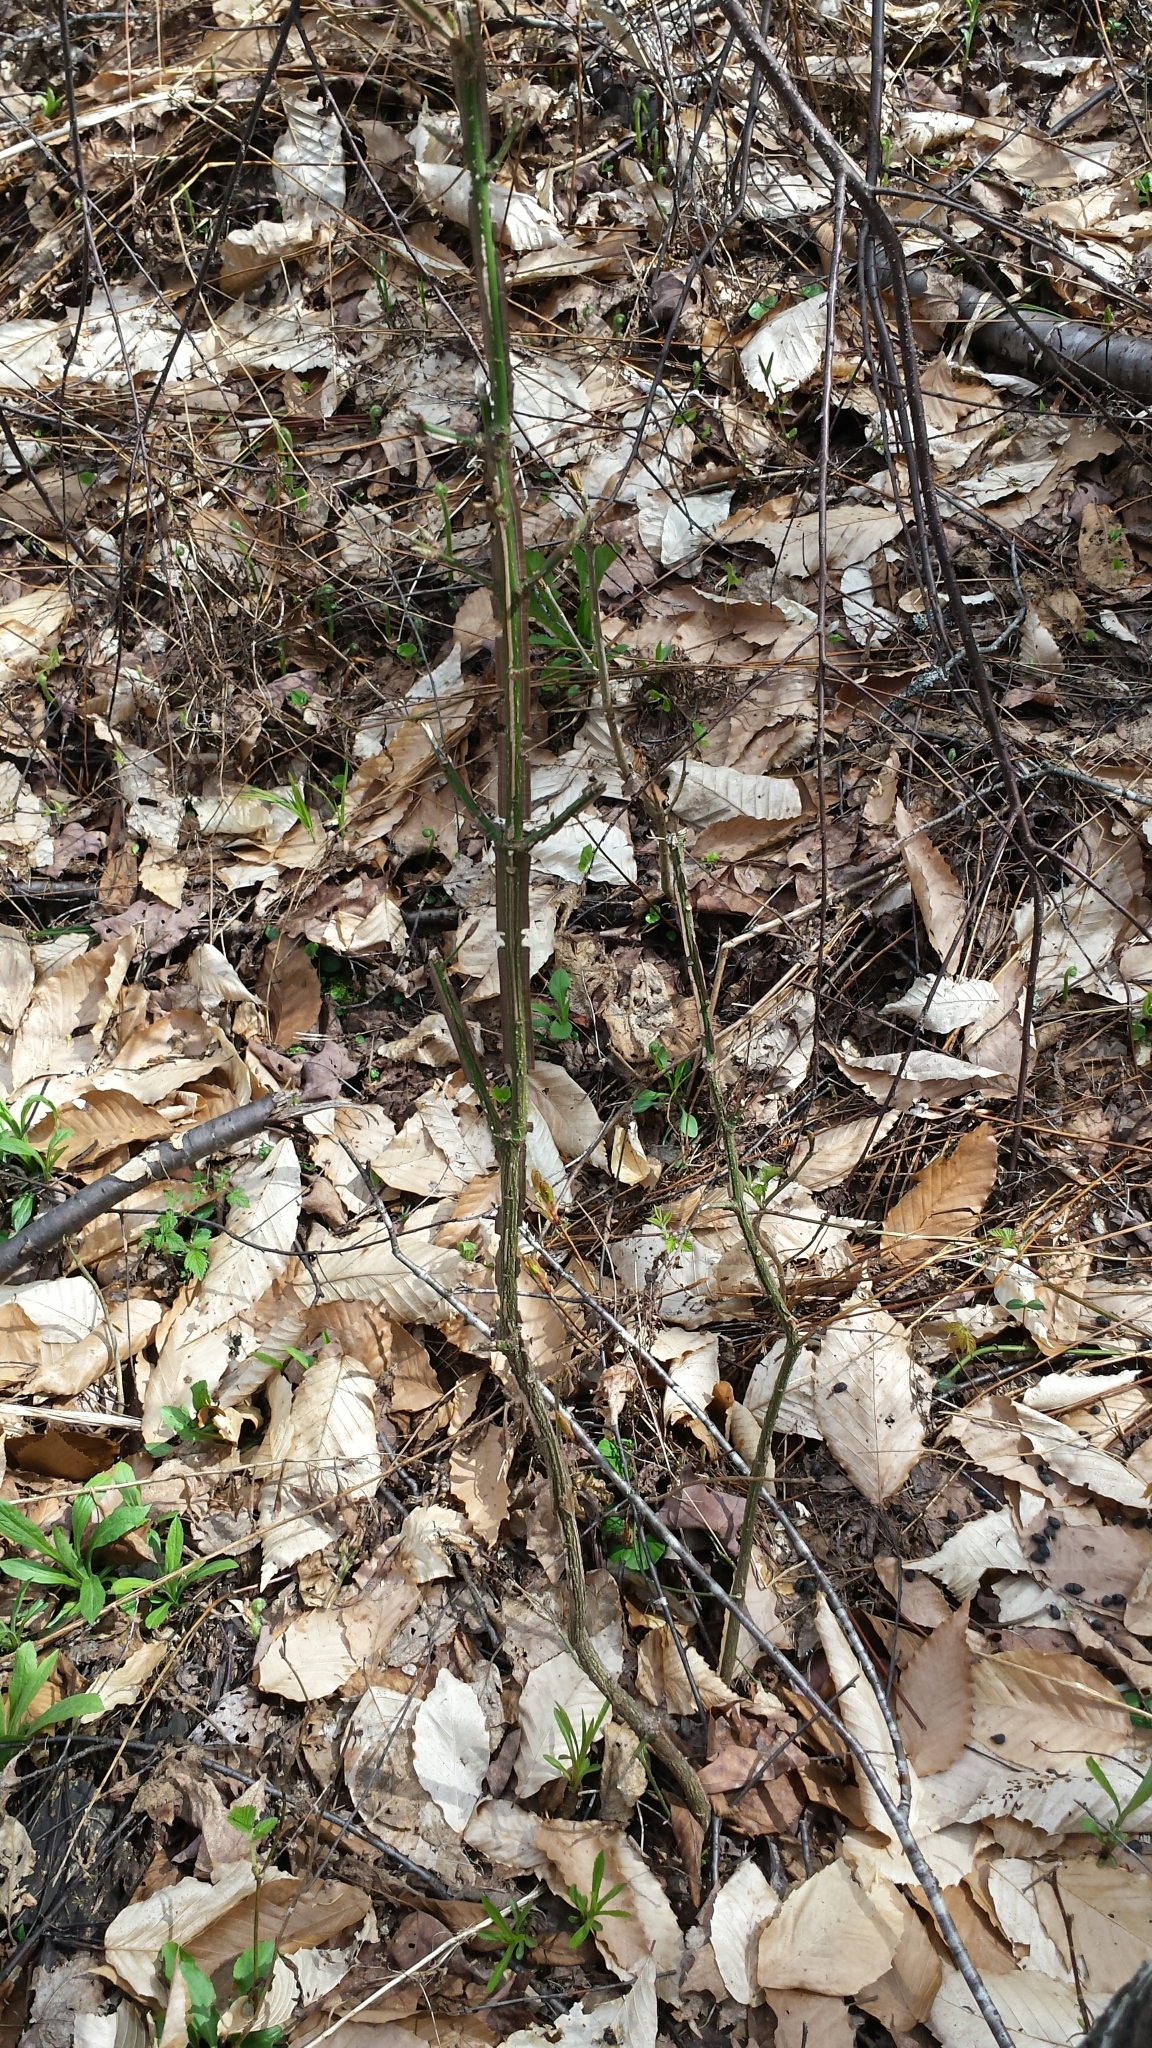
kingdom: Plantae
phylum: Tracheophyta
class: Magnoliopsida
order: Celastrales
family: Celastraceae
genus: Euonymus
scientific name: Euonymus alatus
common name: Winged euonymus
